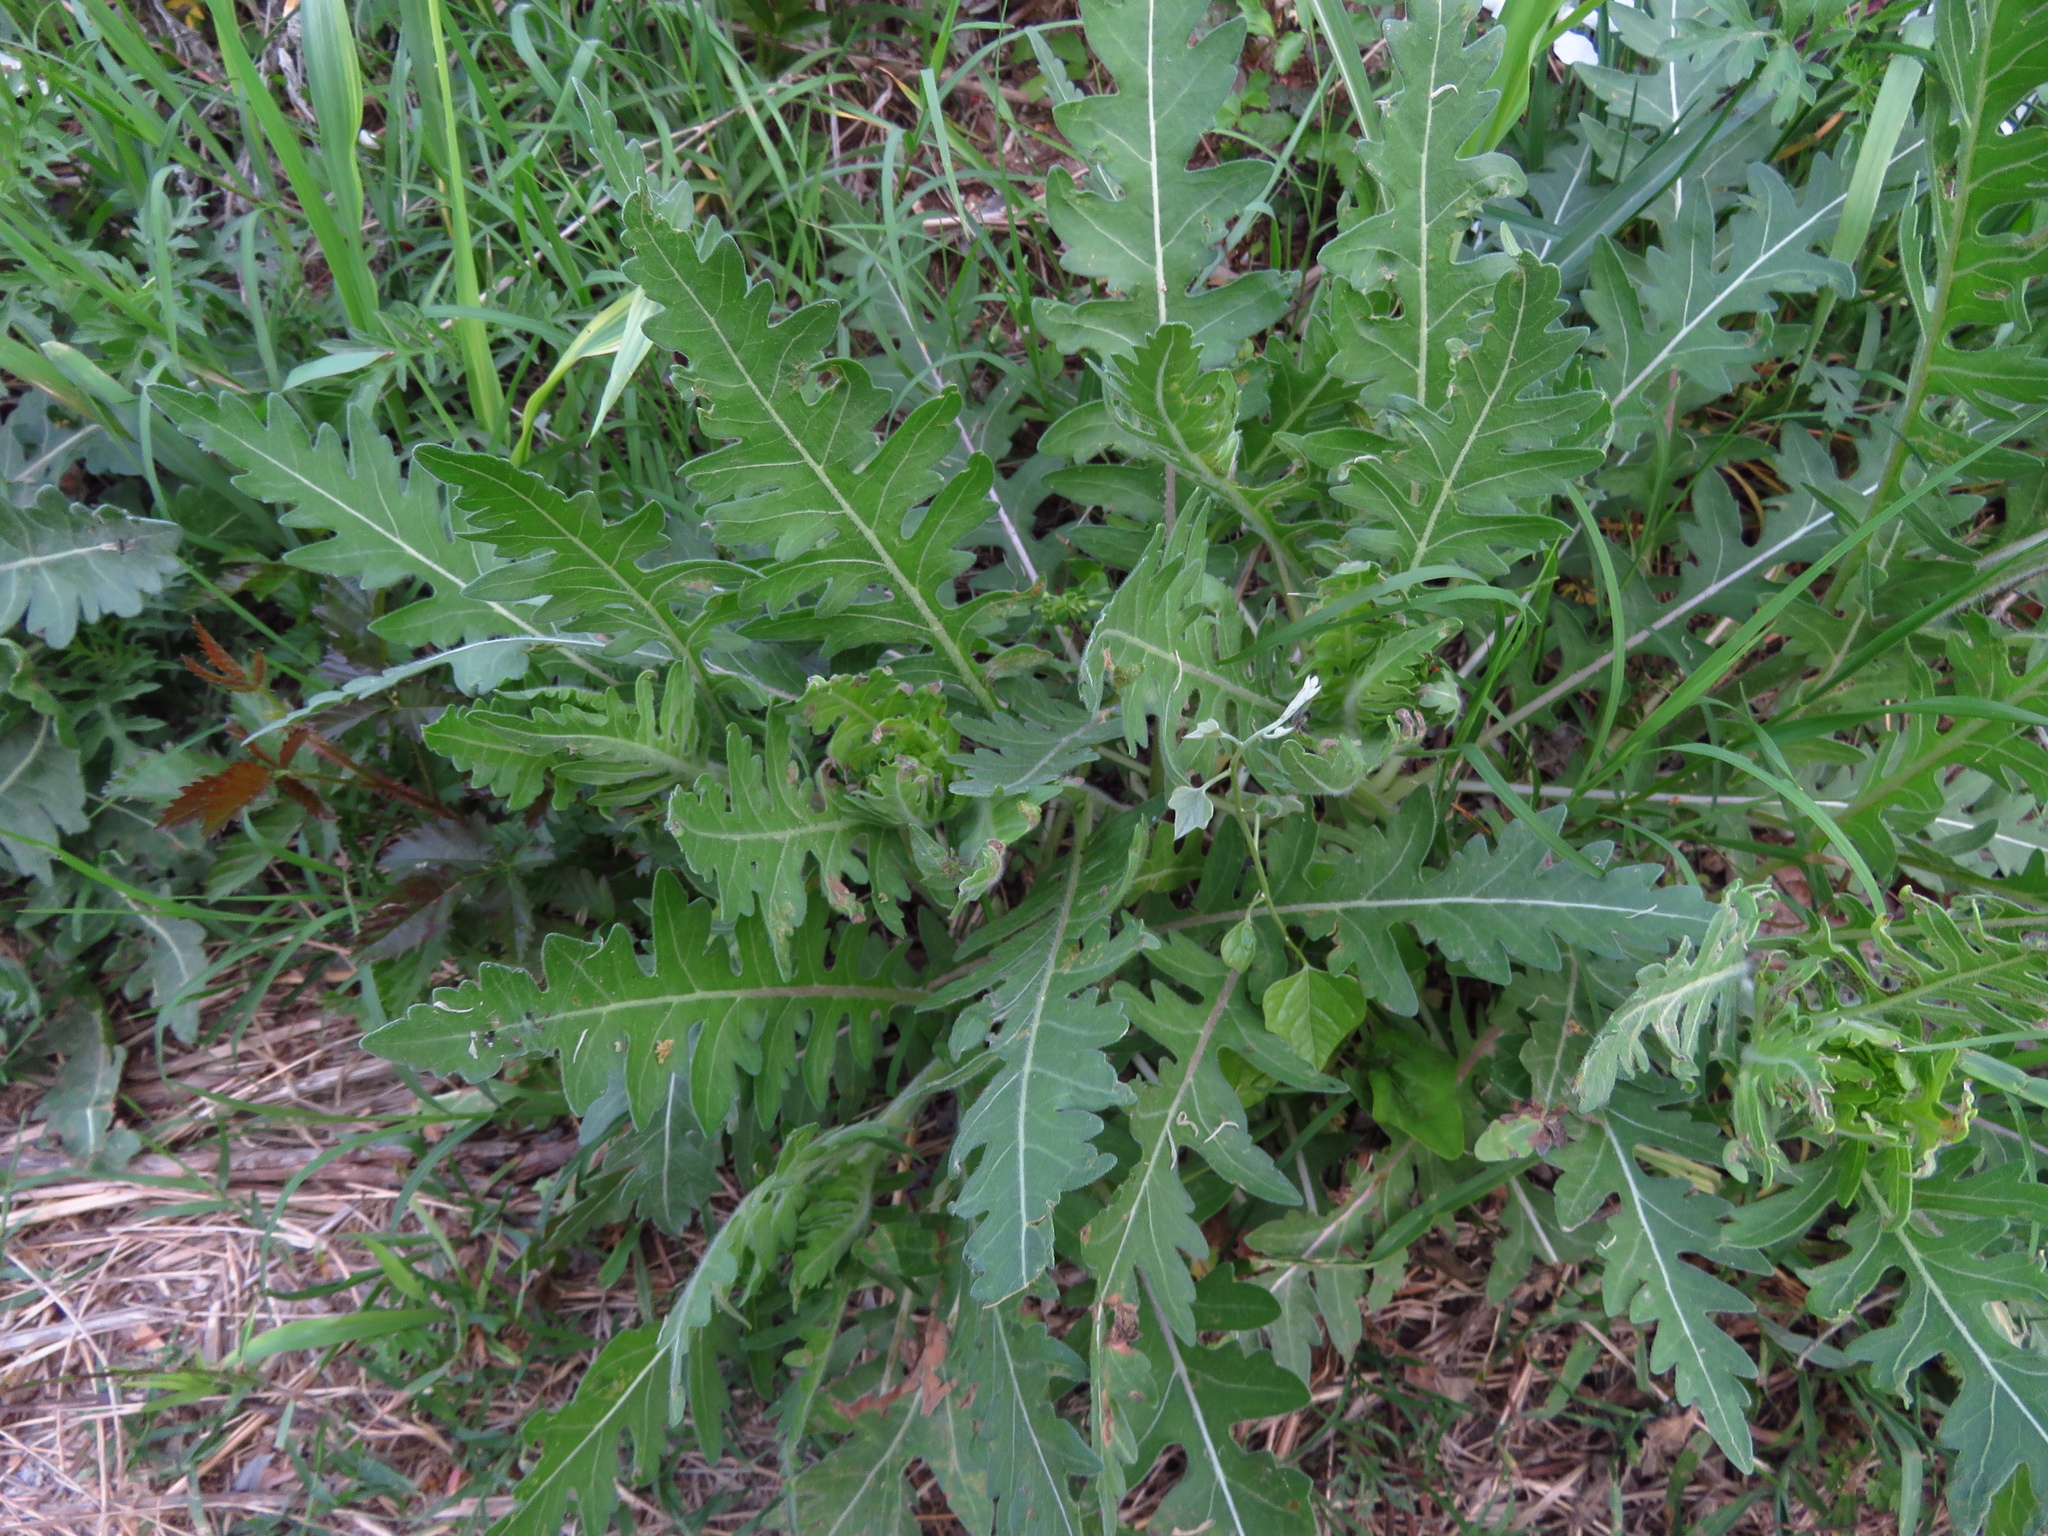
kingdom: Plantae
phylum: Tracheophyta
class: Magnoliopsida
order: Asterales
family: Asteraceae
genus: Engelmannia
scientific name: Engelmannia peristenia
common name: Engelmann's daisy
